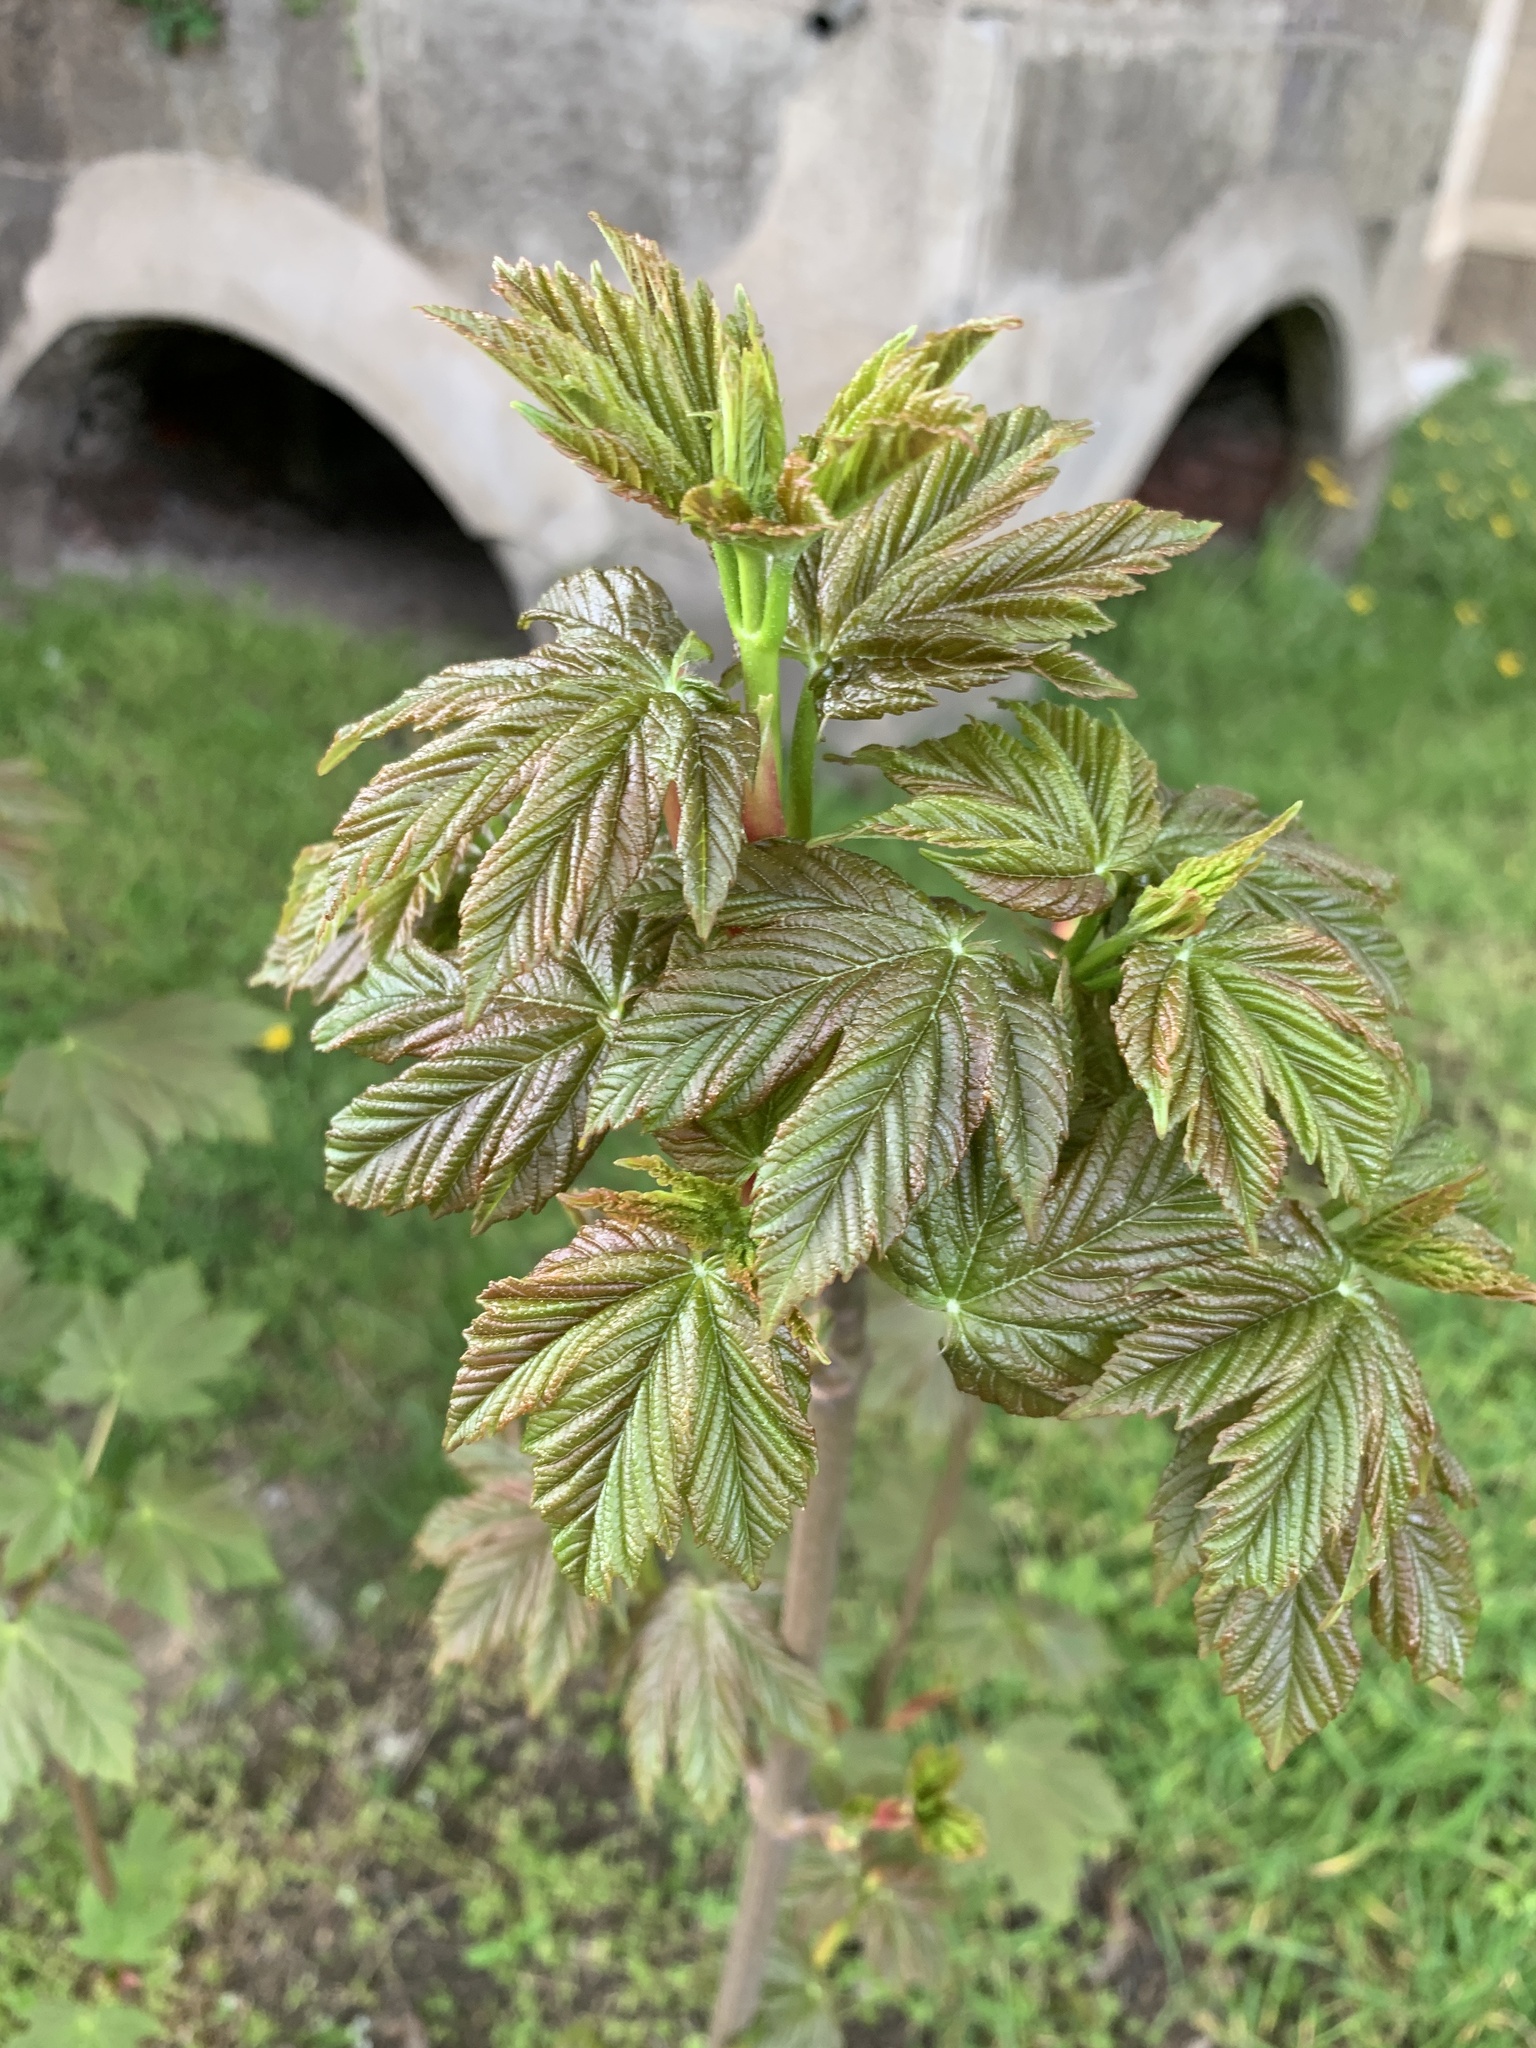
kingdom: Plantae
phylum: Tracheophyta
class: Magnoliopsida
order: Sapindales
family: Sapindaceae
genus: Acer
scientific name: Acer pseudoplatanus
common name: Sycamore
